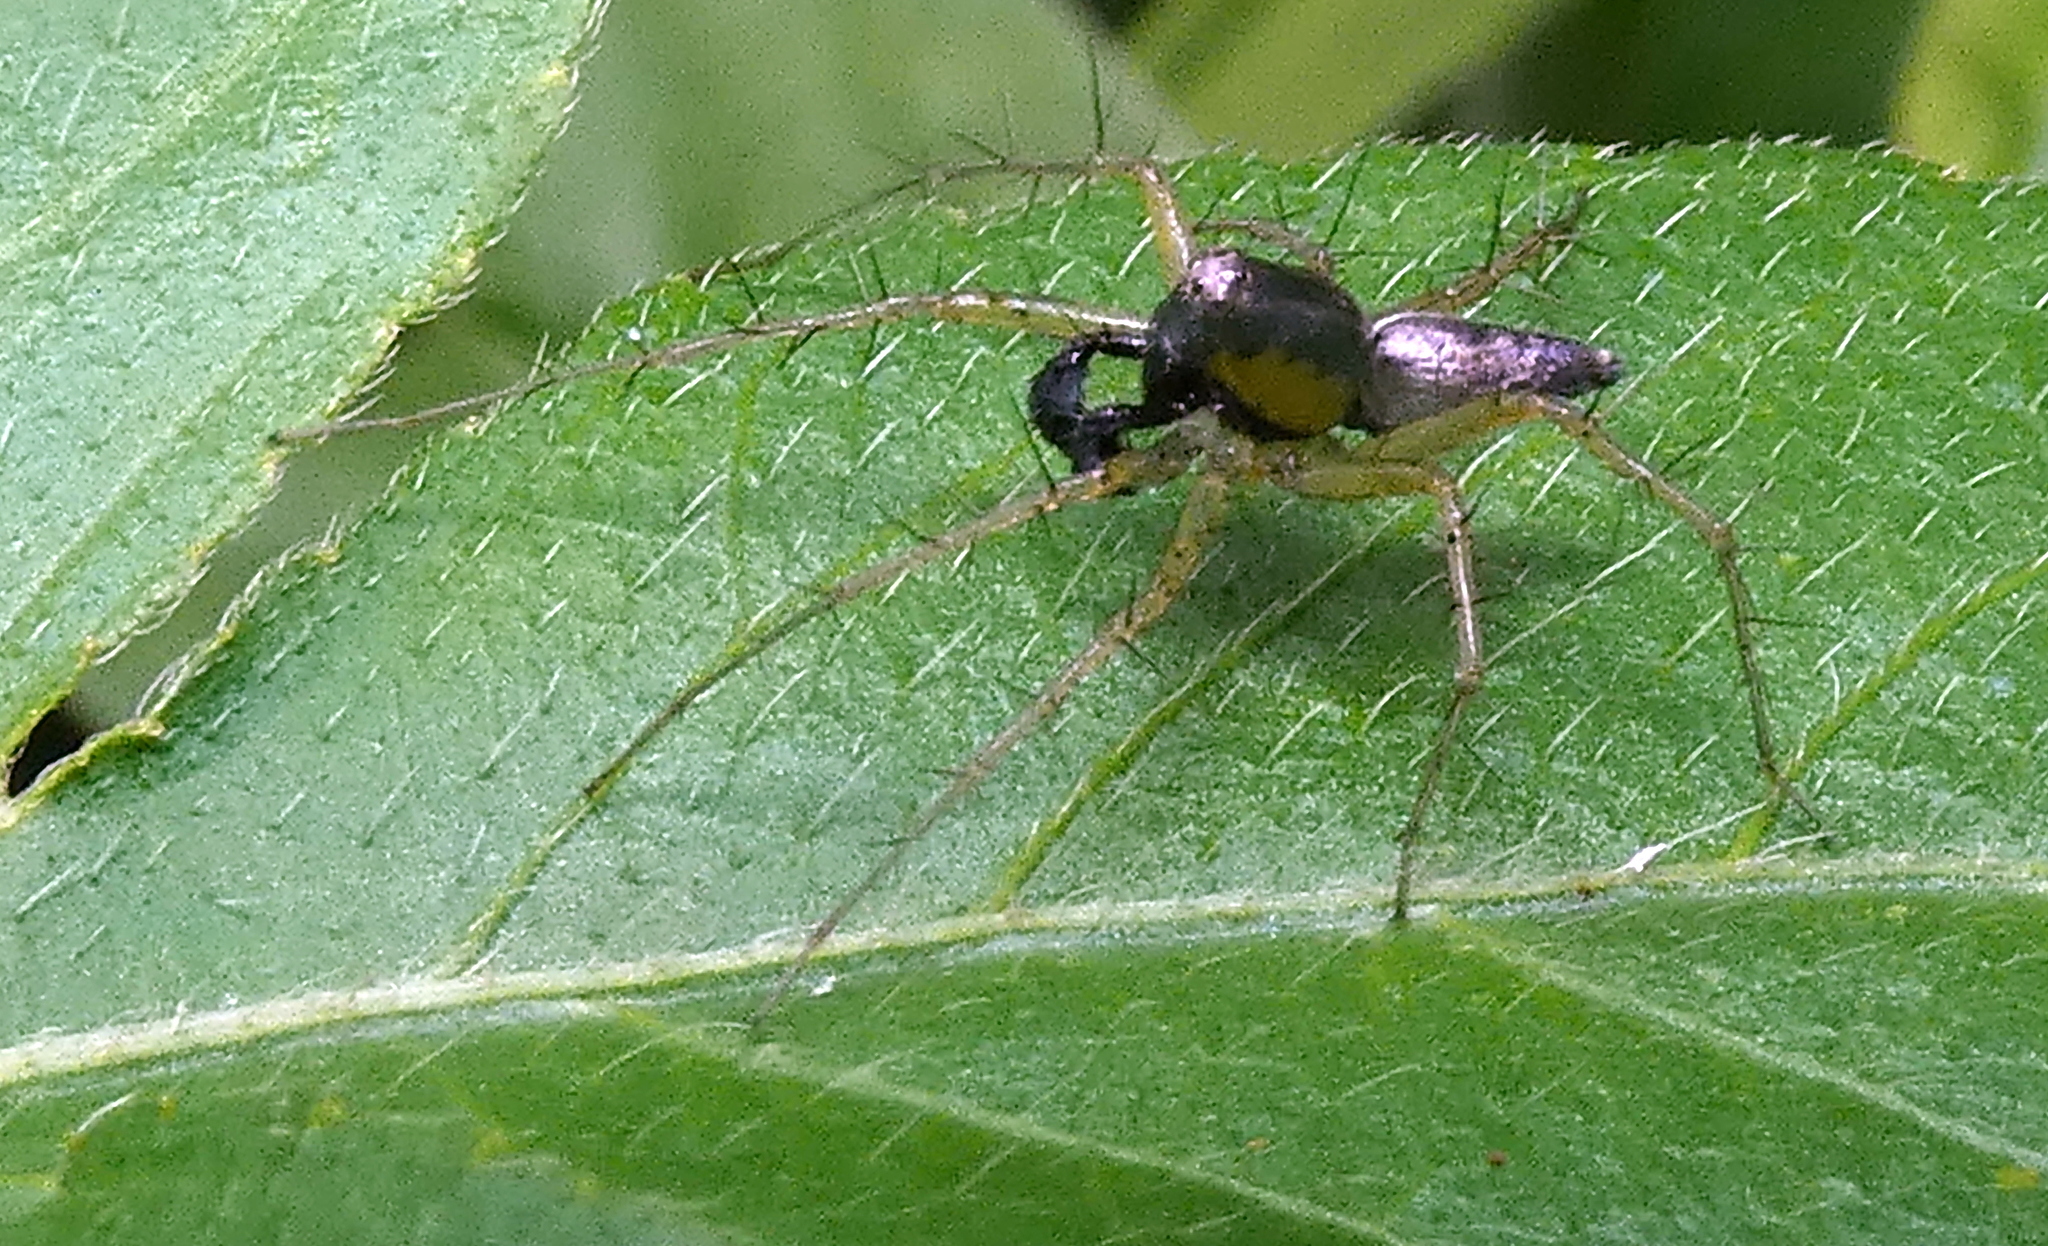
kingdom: Animalia
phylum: Arthropoda
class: Arachnida
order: Araneae
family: Oxyopidae
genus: Oxyopes
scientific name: Oxyopes salticus
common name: Lynx spiders
